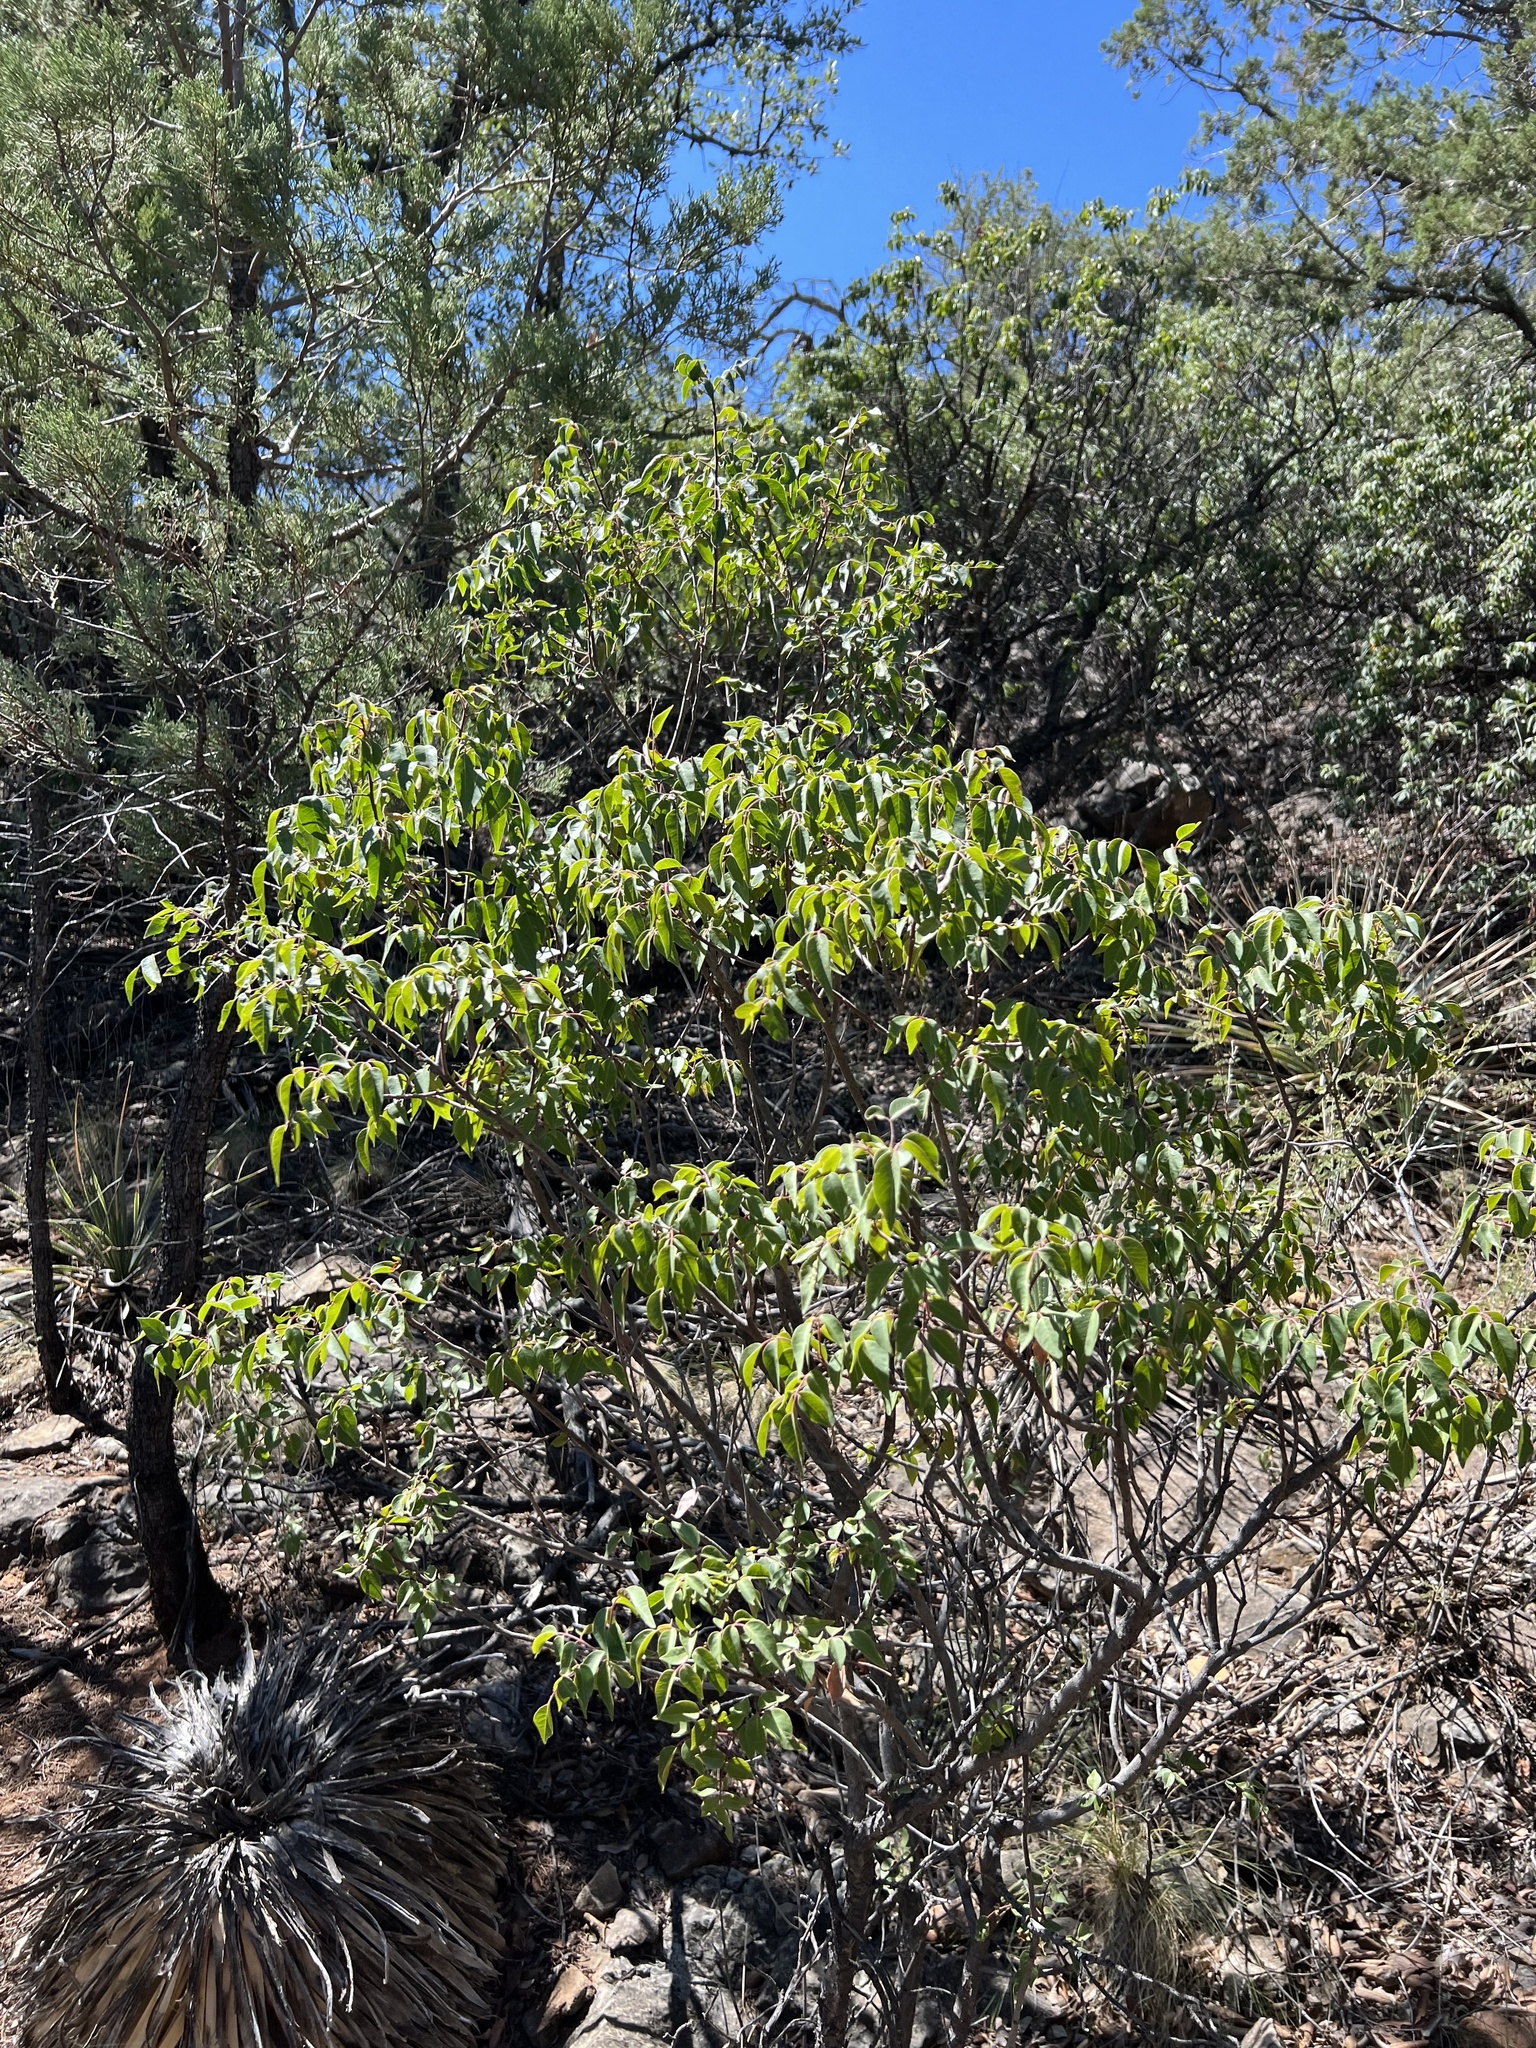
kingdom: Plantae
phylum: Tracheophyta
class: Magnoliopsida
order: Sapindales
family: Anacardiaceae
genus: Rhus
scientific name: Rhus virens
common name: Evergreen sumac
